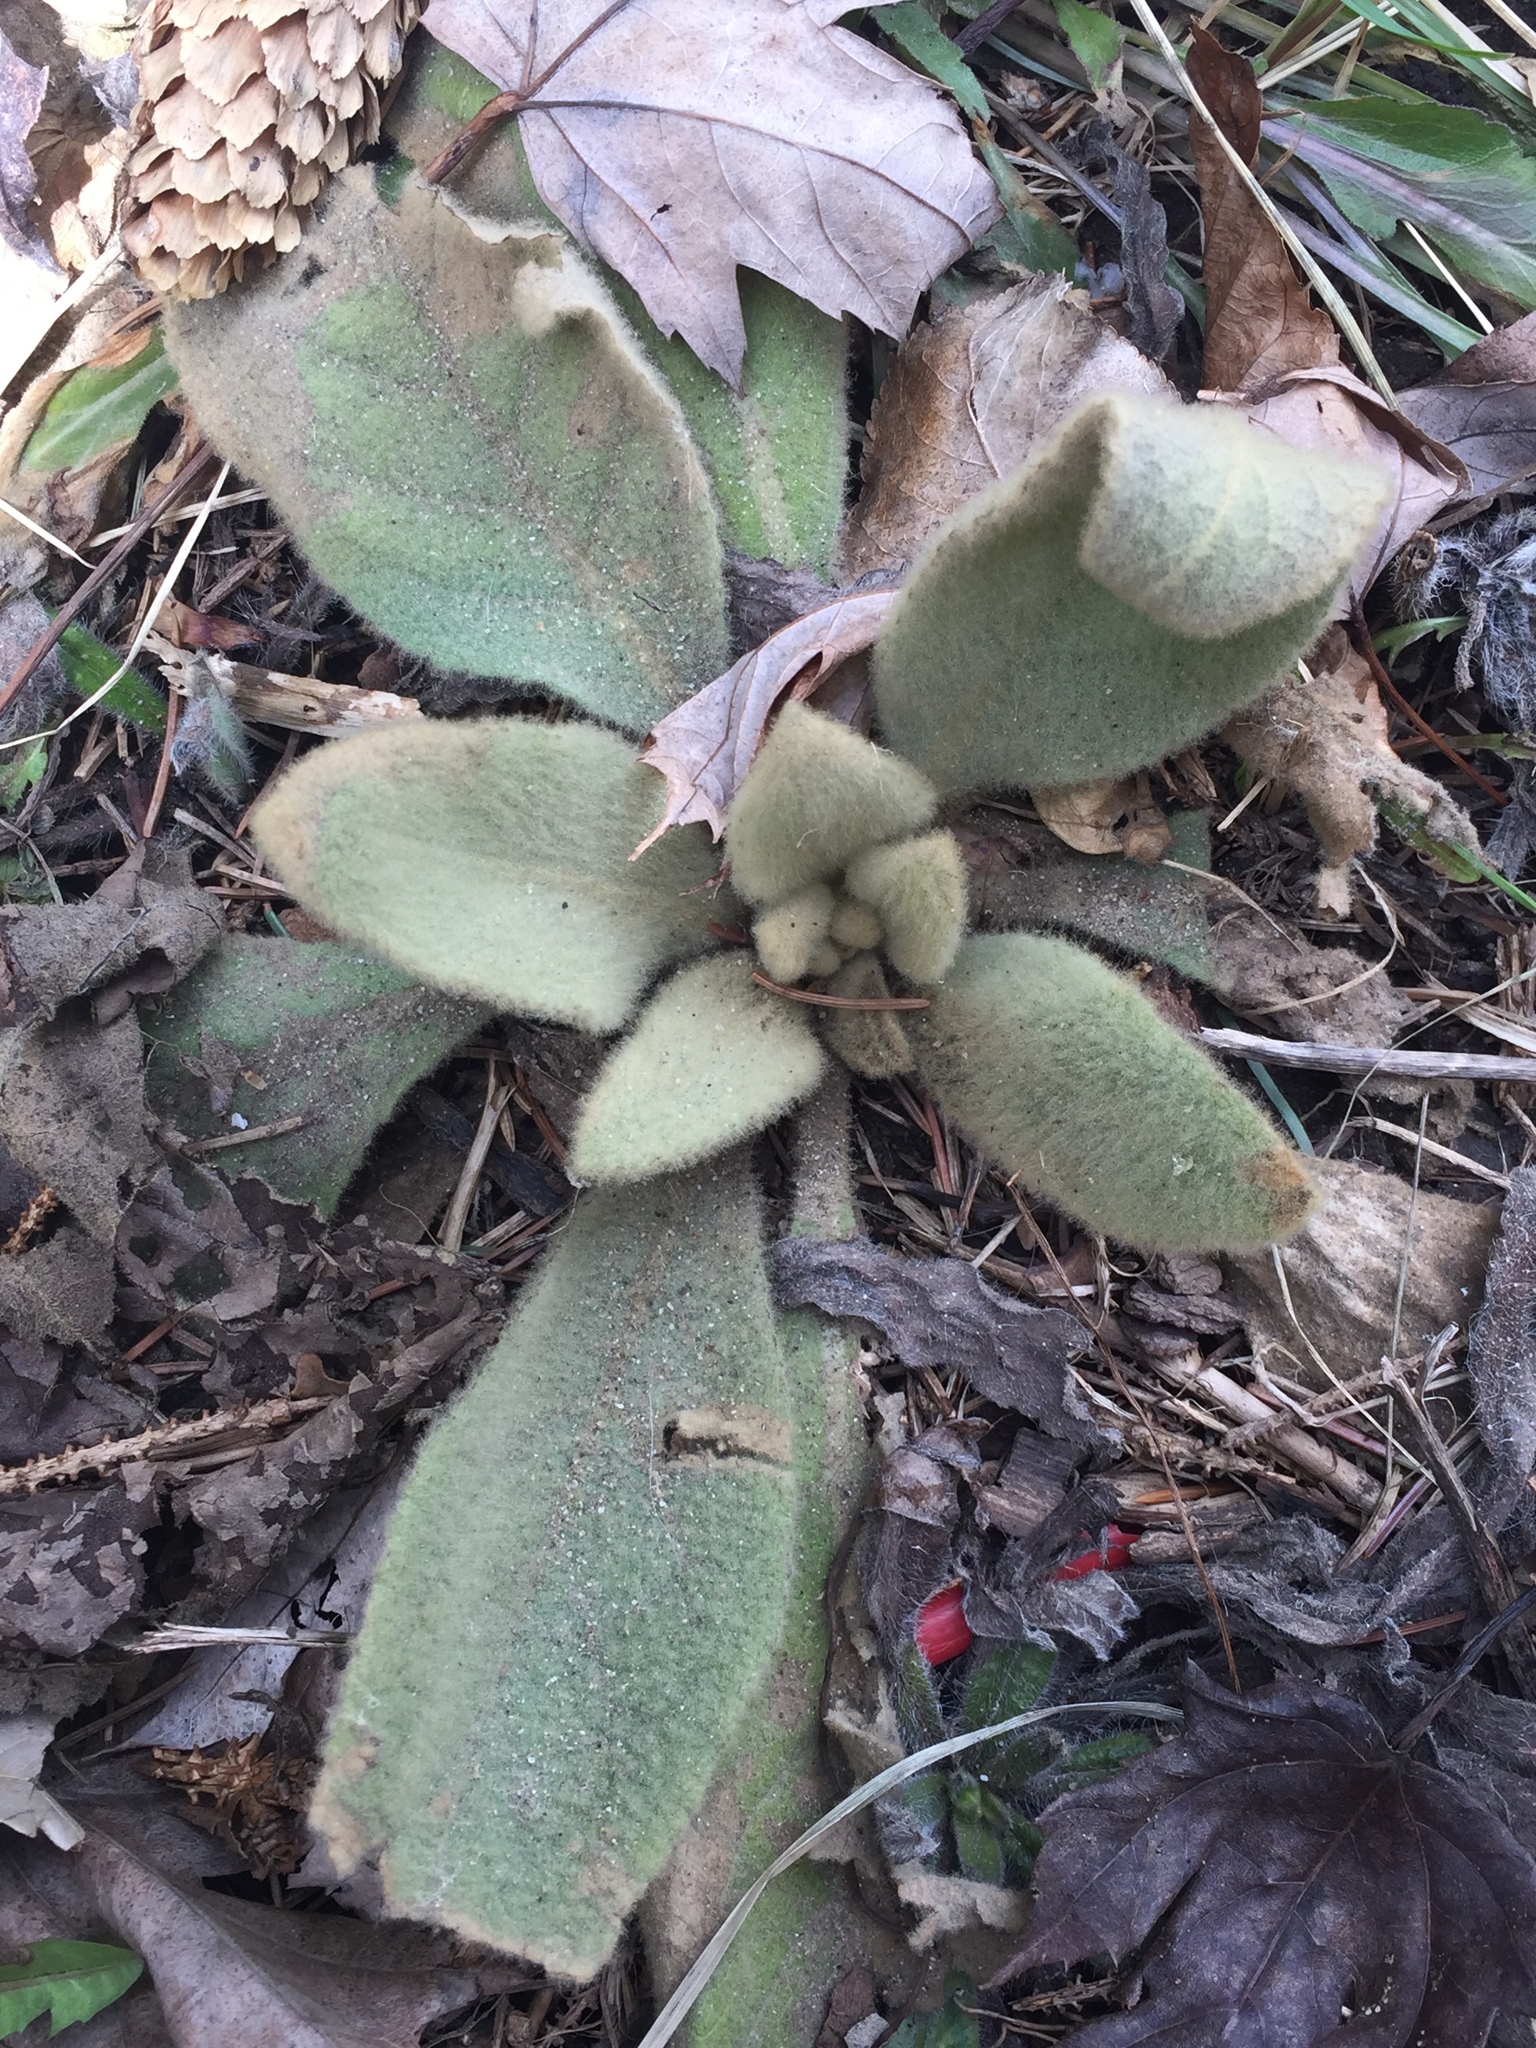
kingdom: Plantae
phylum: Tracheophyta
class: Magnoliopsida
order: Lamiales
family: Scrophulariaceae
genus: Verbascum
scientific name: Verbascum thapsus
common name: Common mullein
